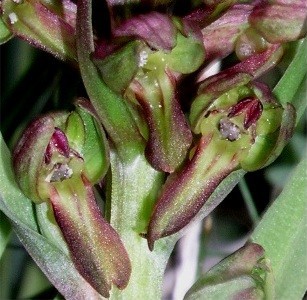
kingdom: Plantae
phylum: Tracheophyta
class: Liliopsida
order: Asparagales
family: Orchidaceae
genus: Dactylorhiza
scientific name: Dactylorhiza viridis
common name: Longbract frog orchid
